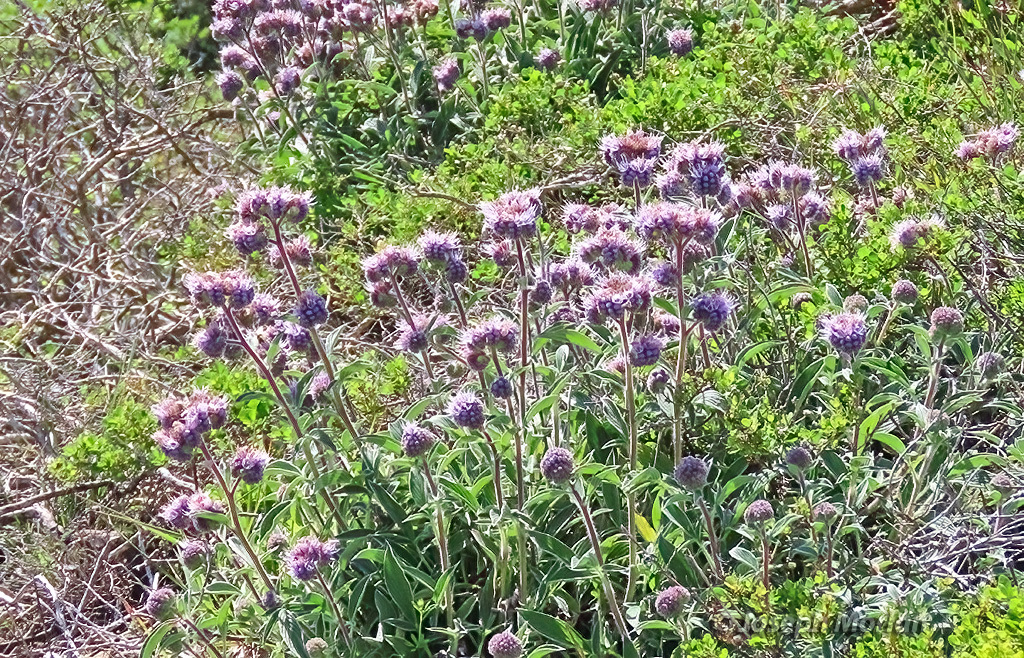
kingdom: Plantae
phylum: Tracheophyta
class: Magnoliopsida
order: Boraginales
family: Hydrophyllaceae
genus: Phacelia
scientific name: Phacelia californica
